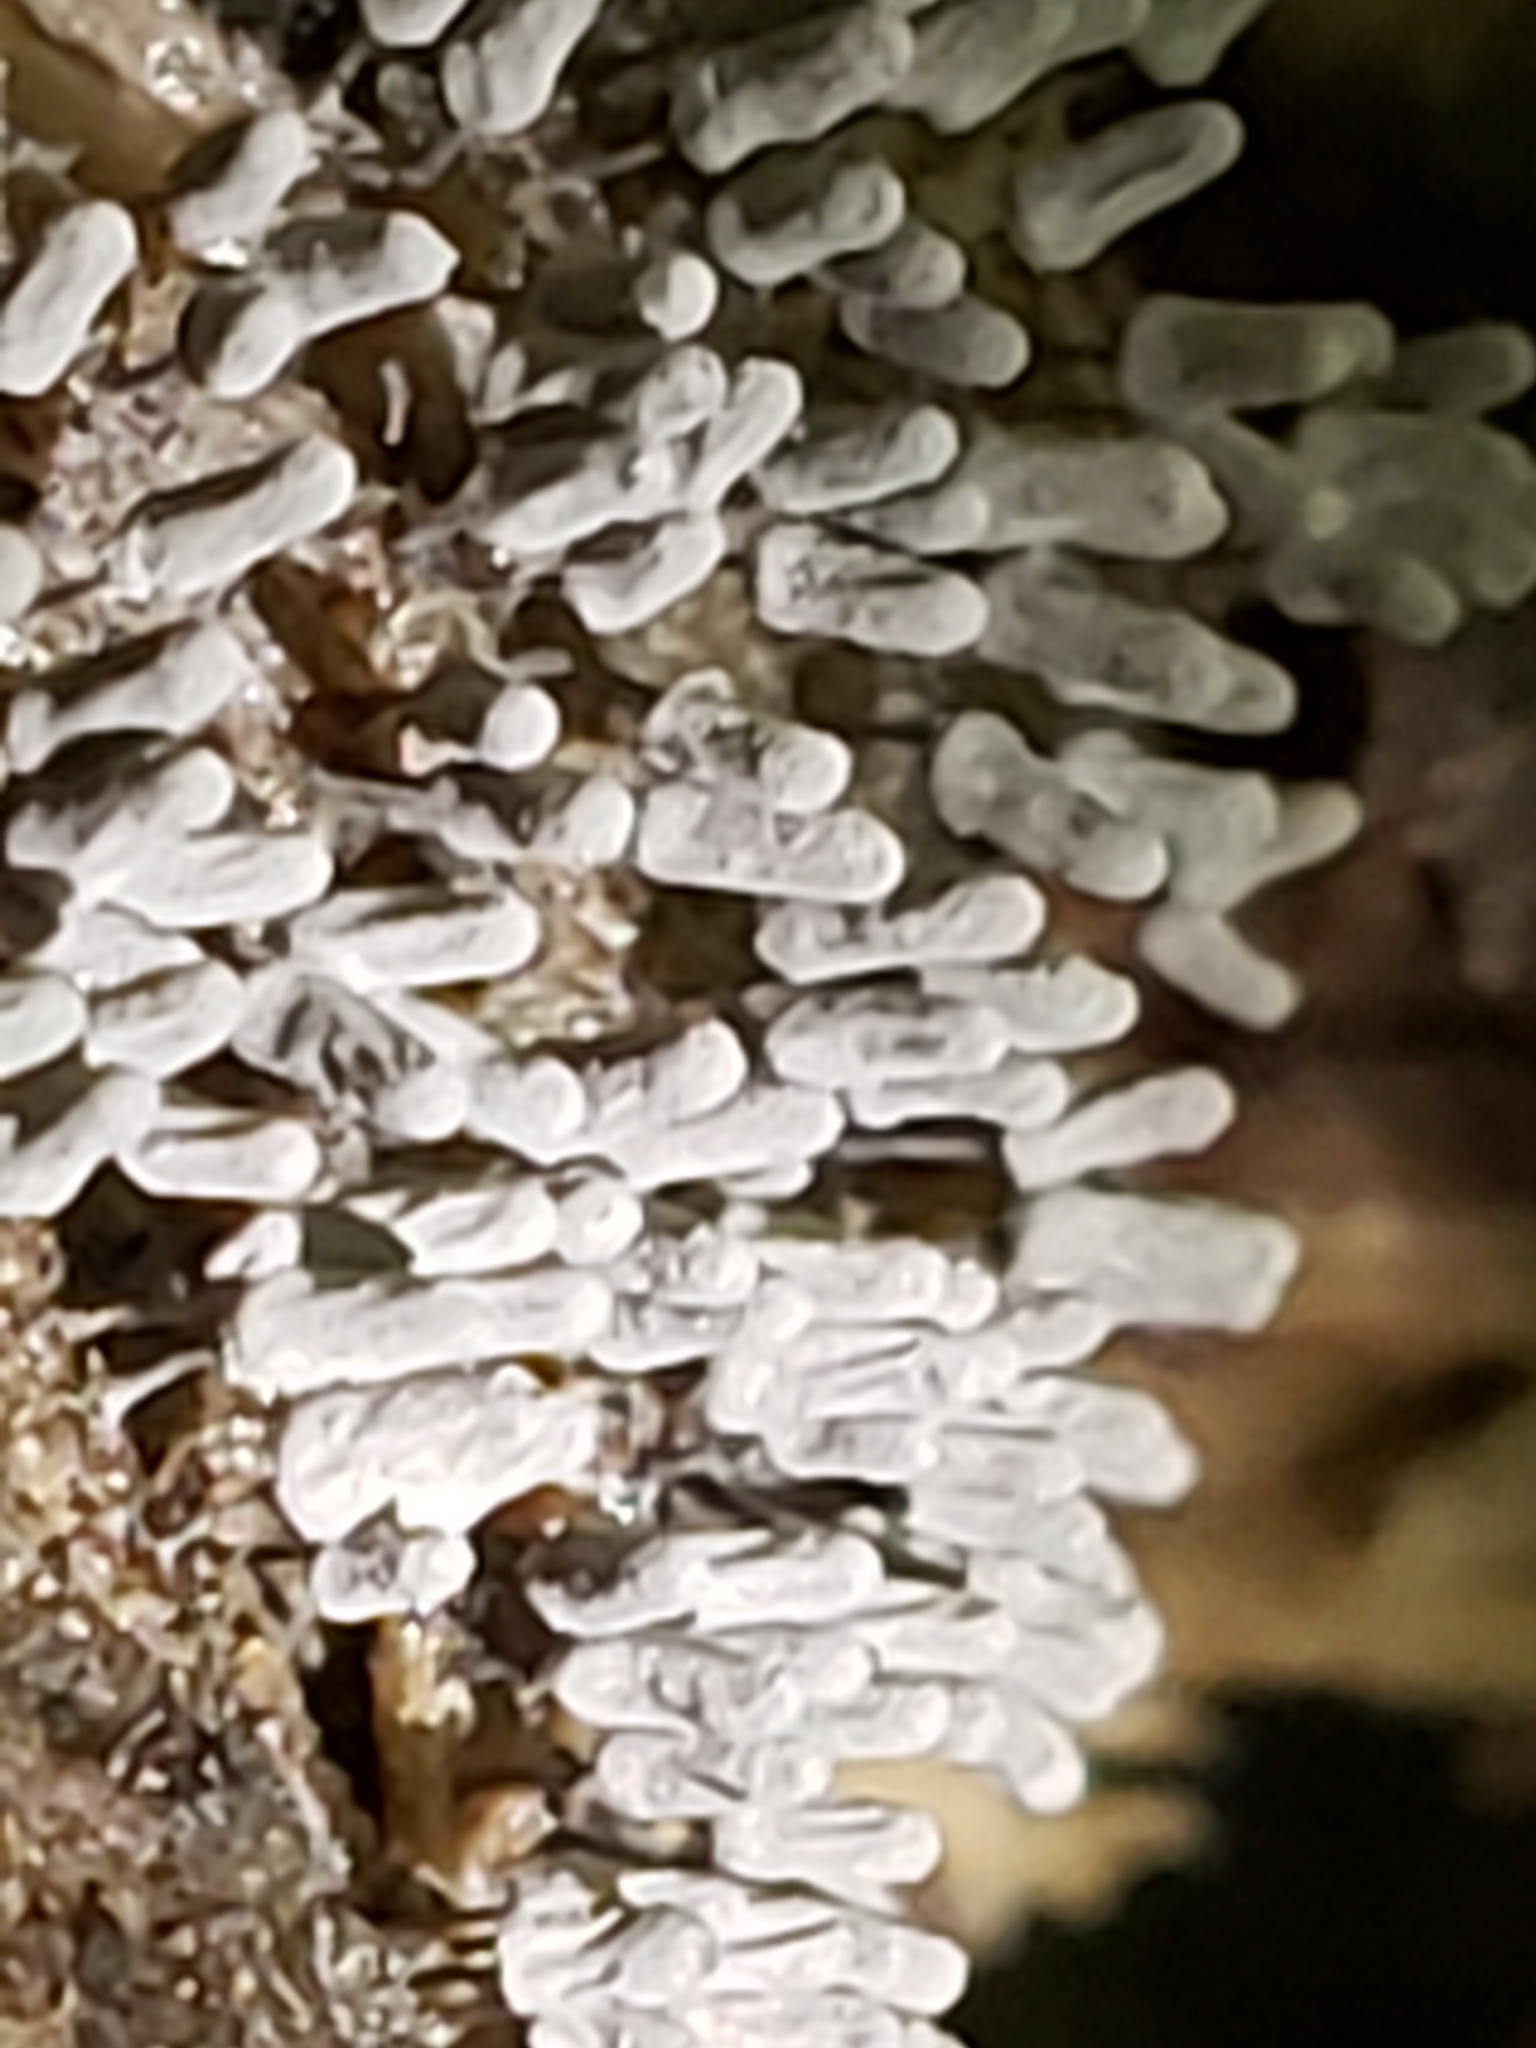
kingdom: Protozoa
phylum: Mycetozoa
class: Myxomycetes
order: Trichiales
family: Arcyriaceae
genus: Arcyria
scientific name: Arcyria cinerea
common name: White carnival candy slime mold
